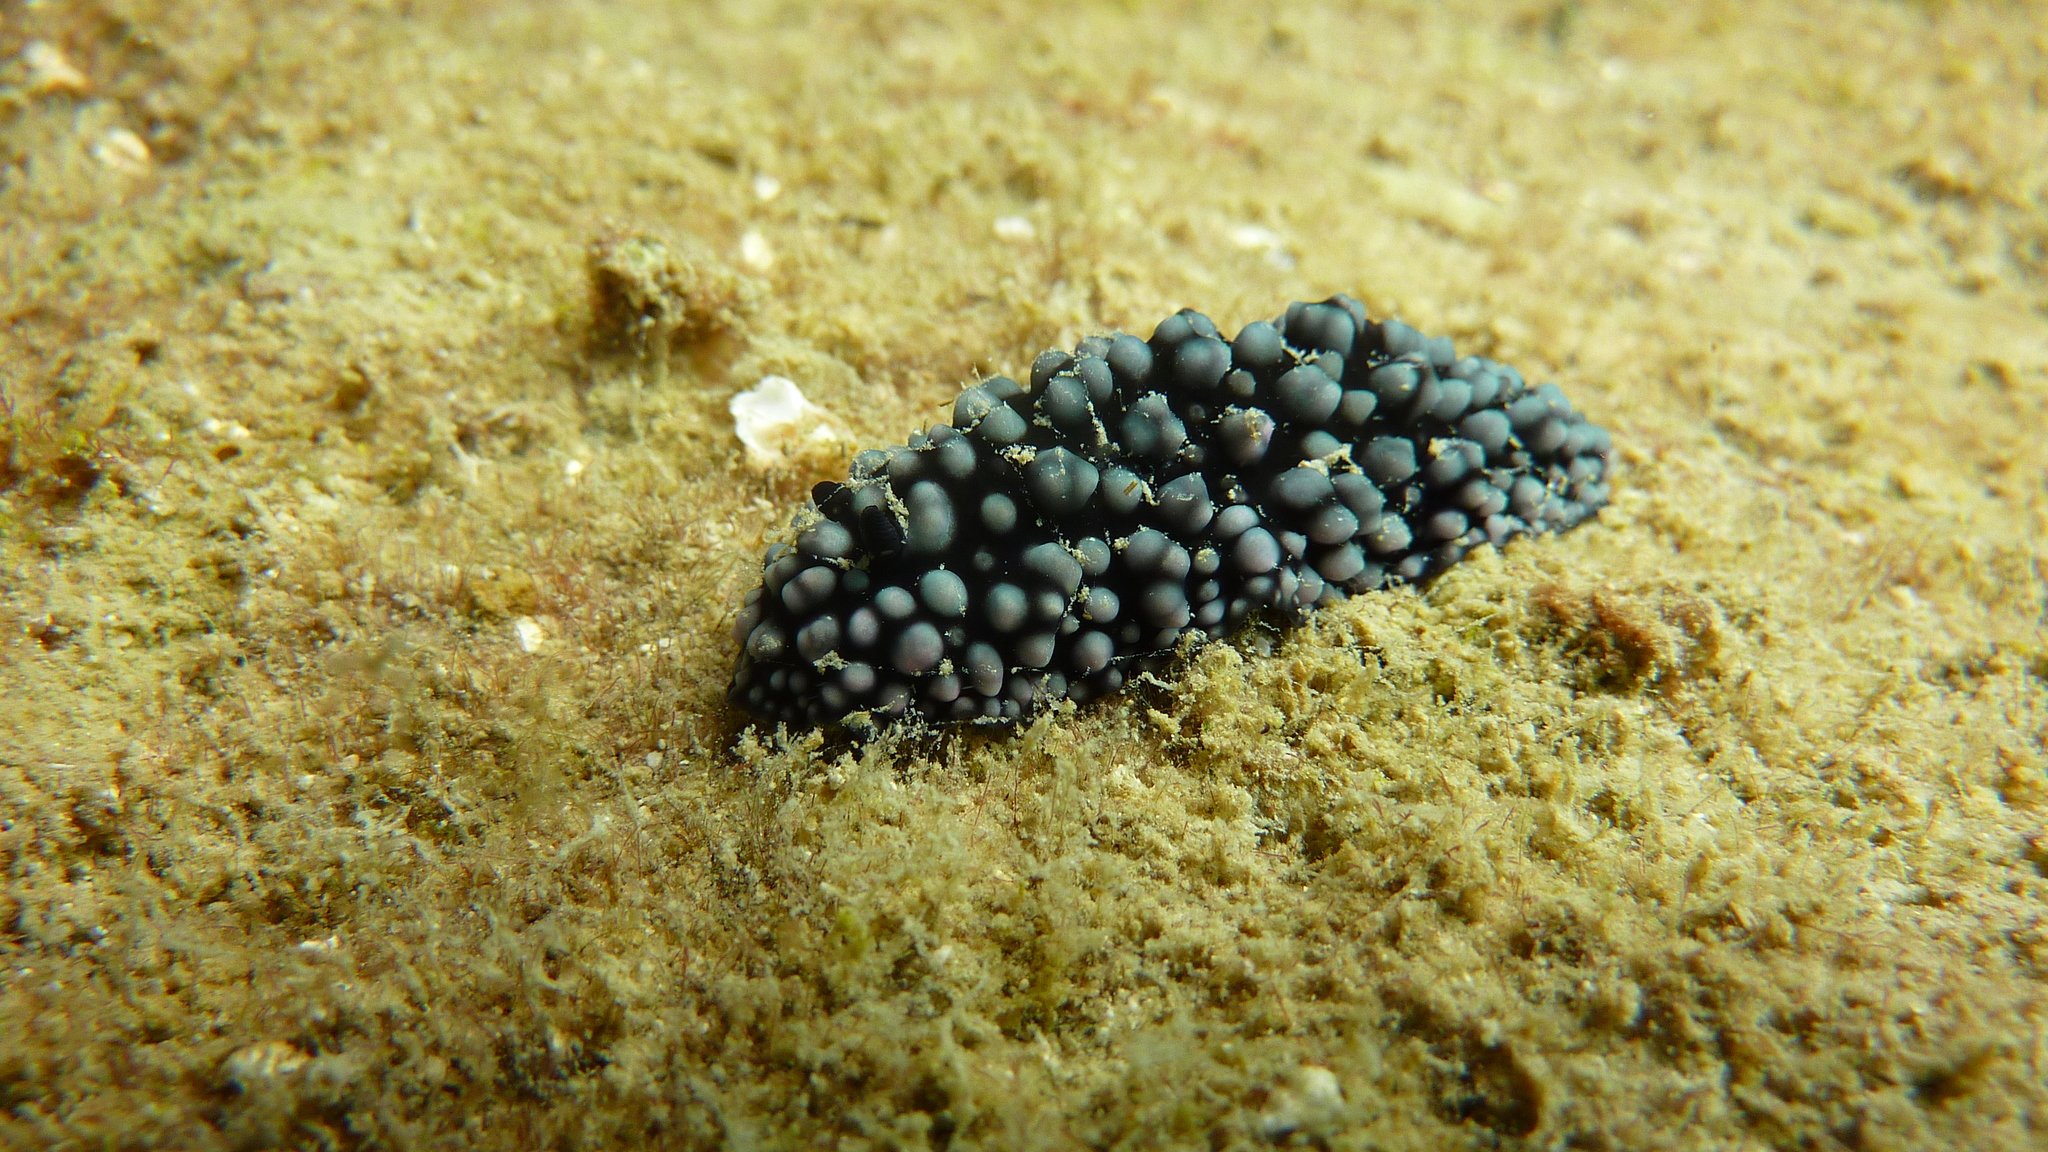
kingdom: Animalia
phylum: Mollusca
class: Gastropoda
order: Nudibranchia
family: Phyllidiidae
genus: Phyllidiella
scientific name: Phyllidiella nigra
